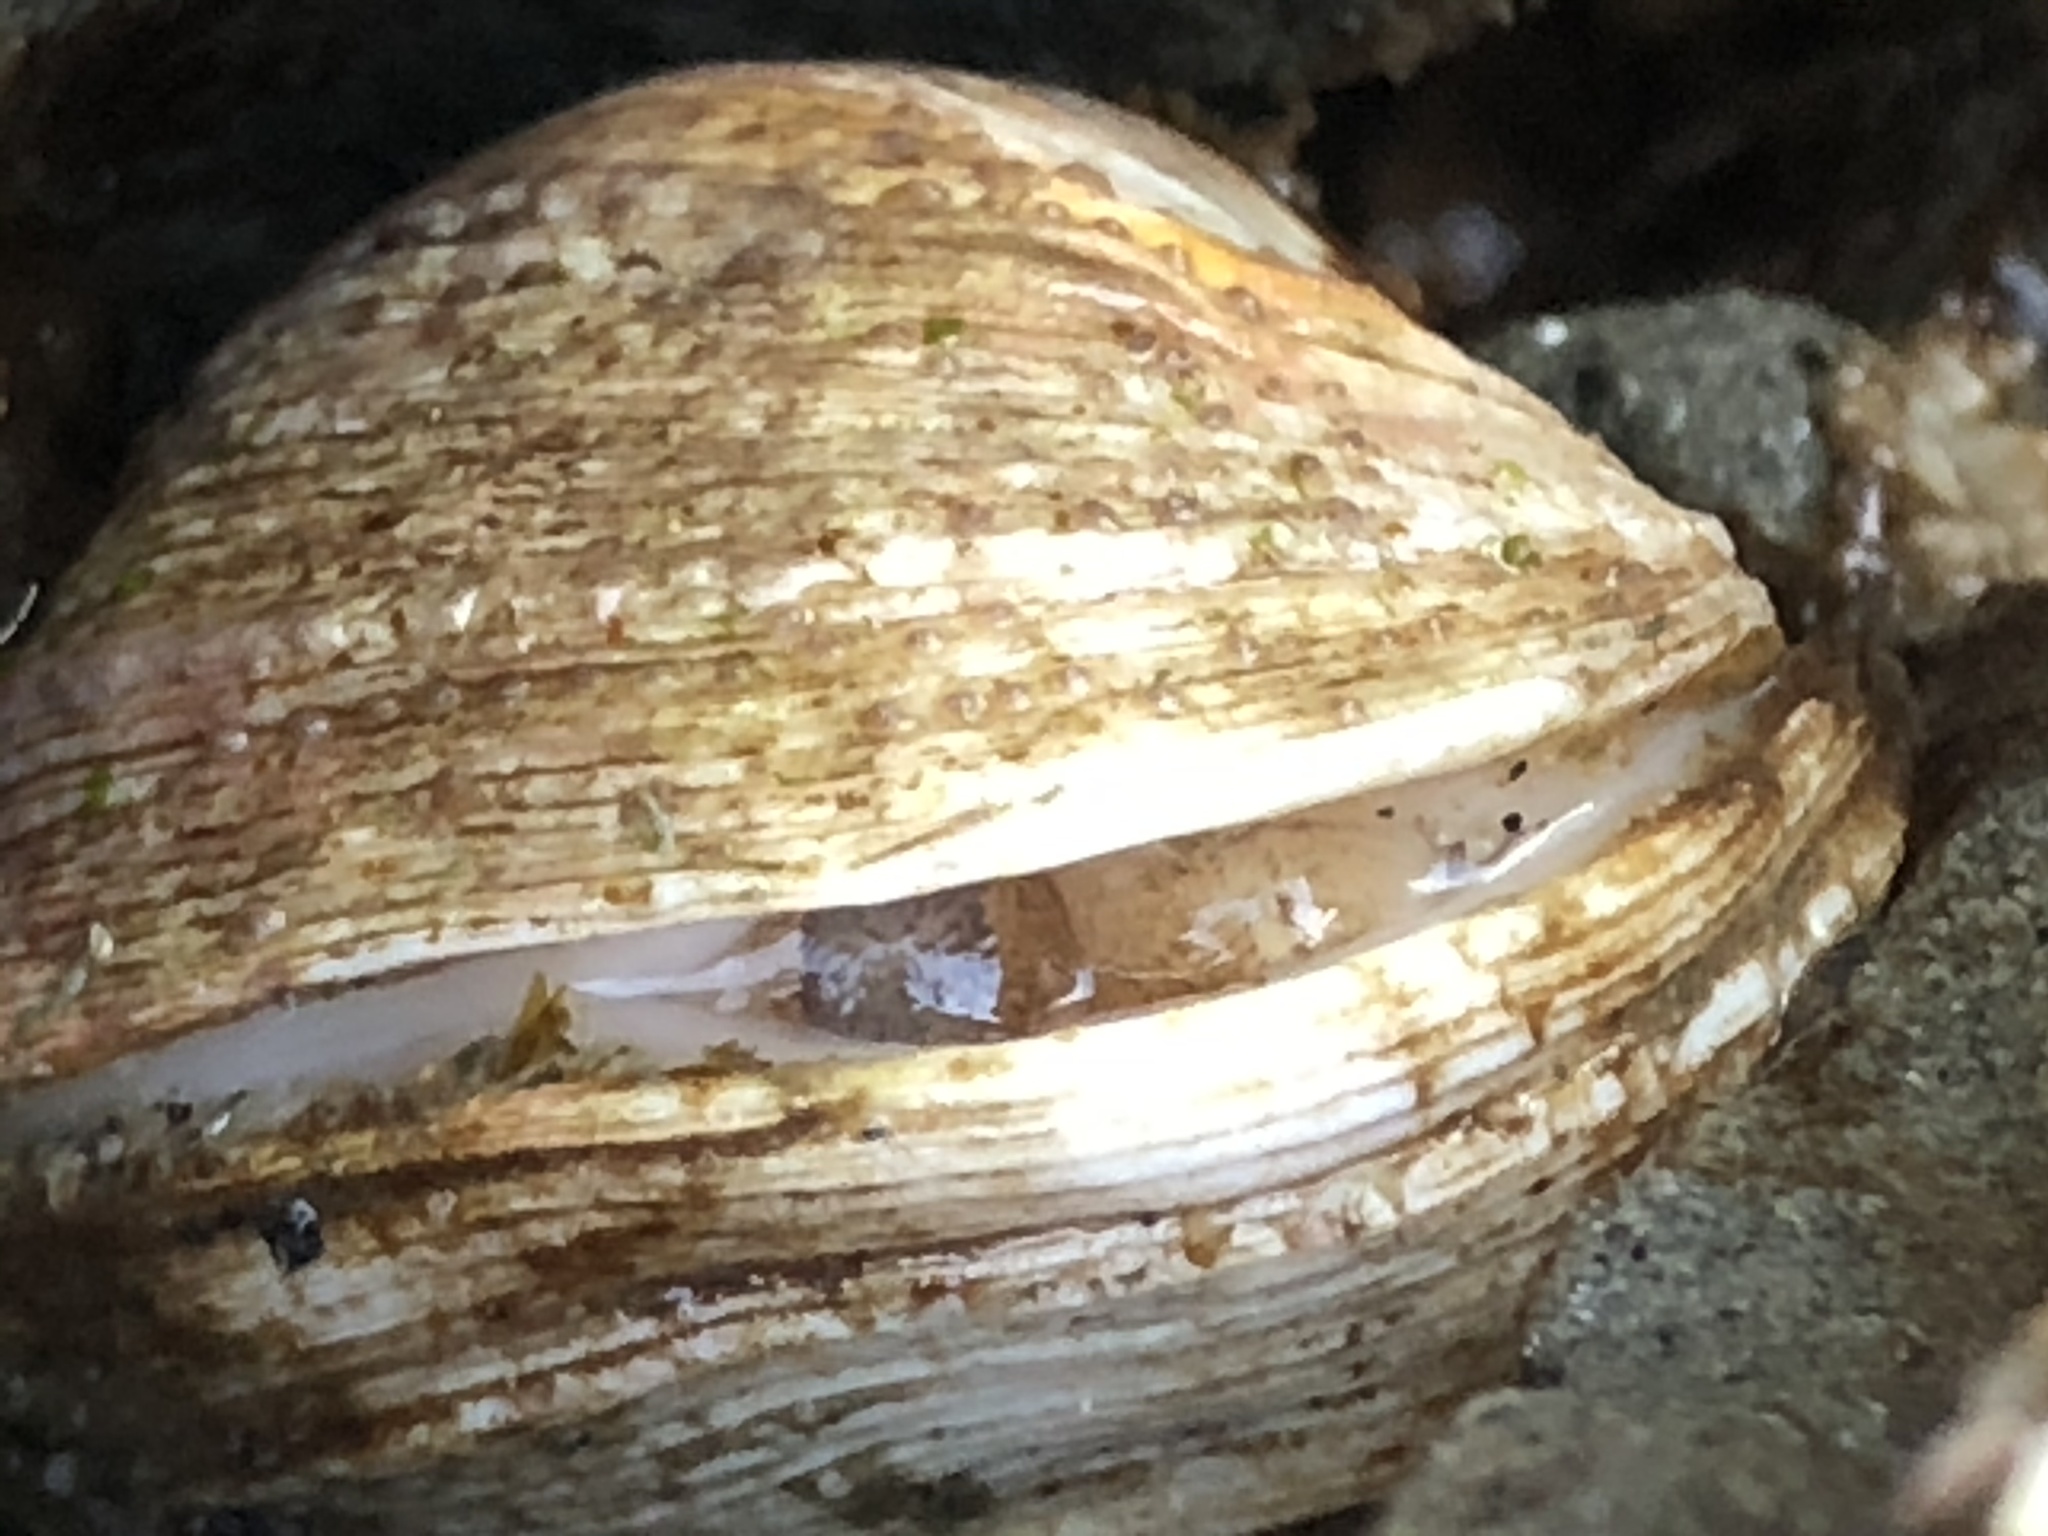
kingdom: Animalia
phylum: Mollusca
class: Bivalvia
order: Venerida
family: Veneridae
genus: Petricola
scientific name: Petricola carditoides
